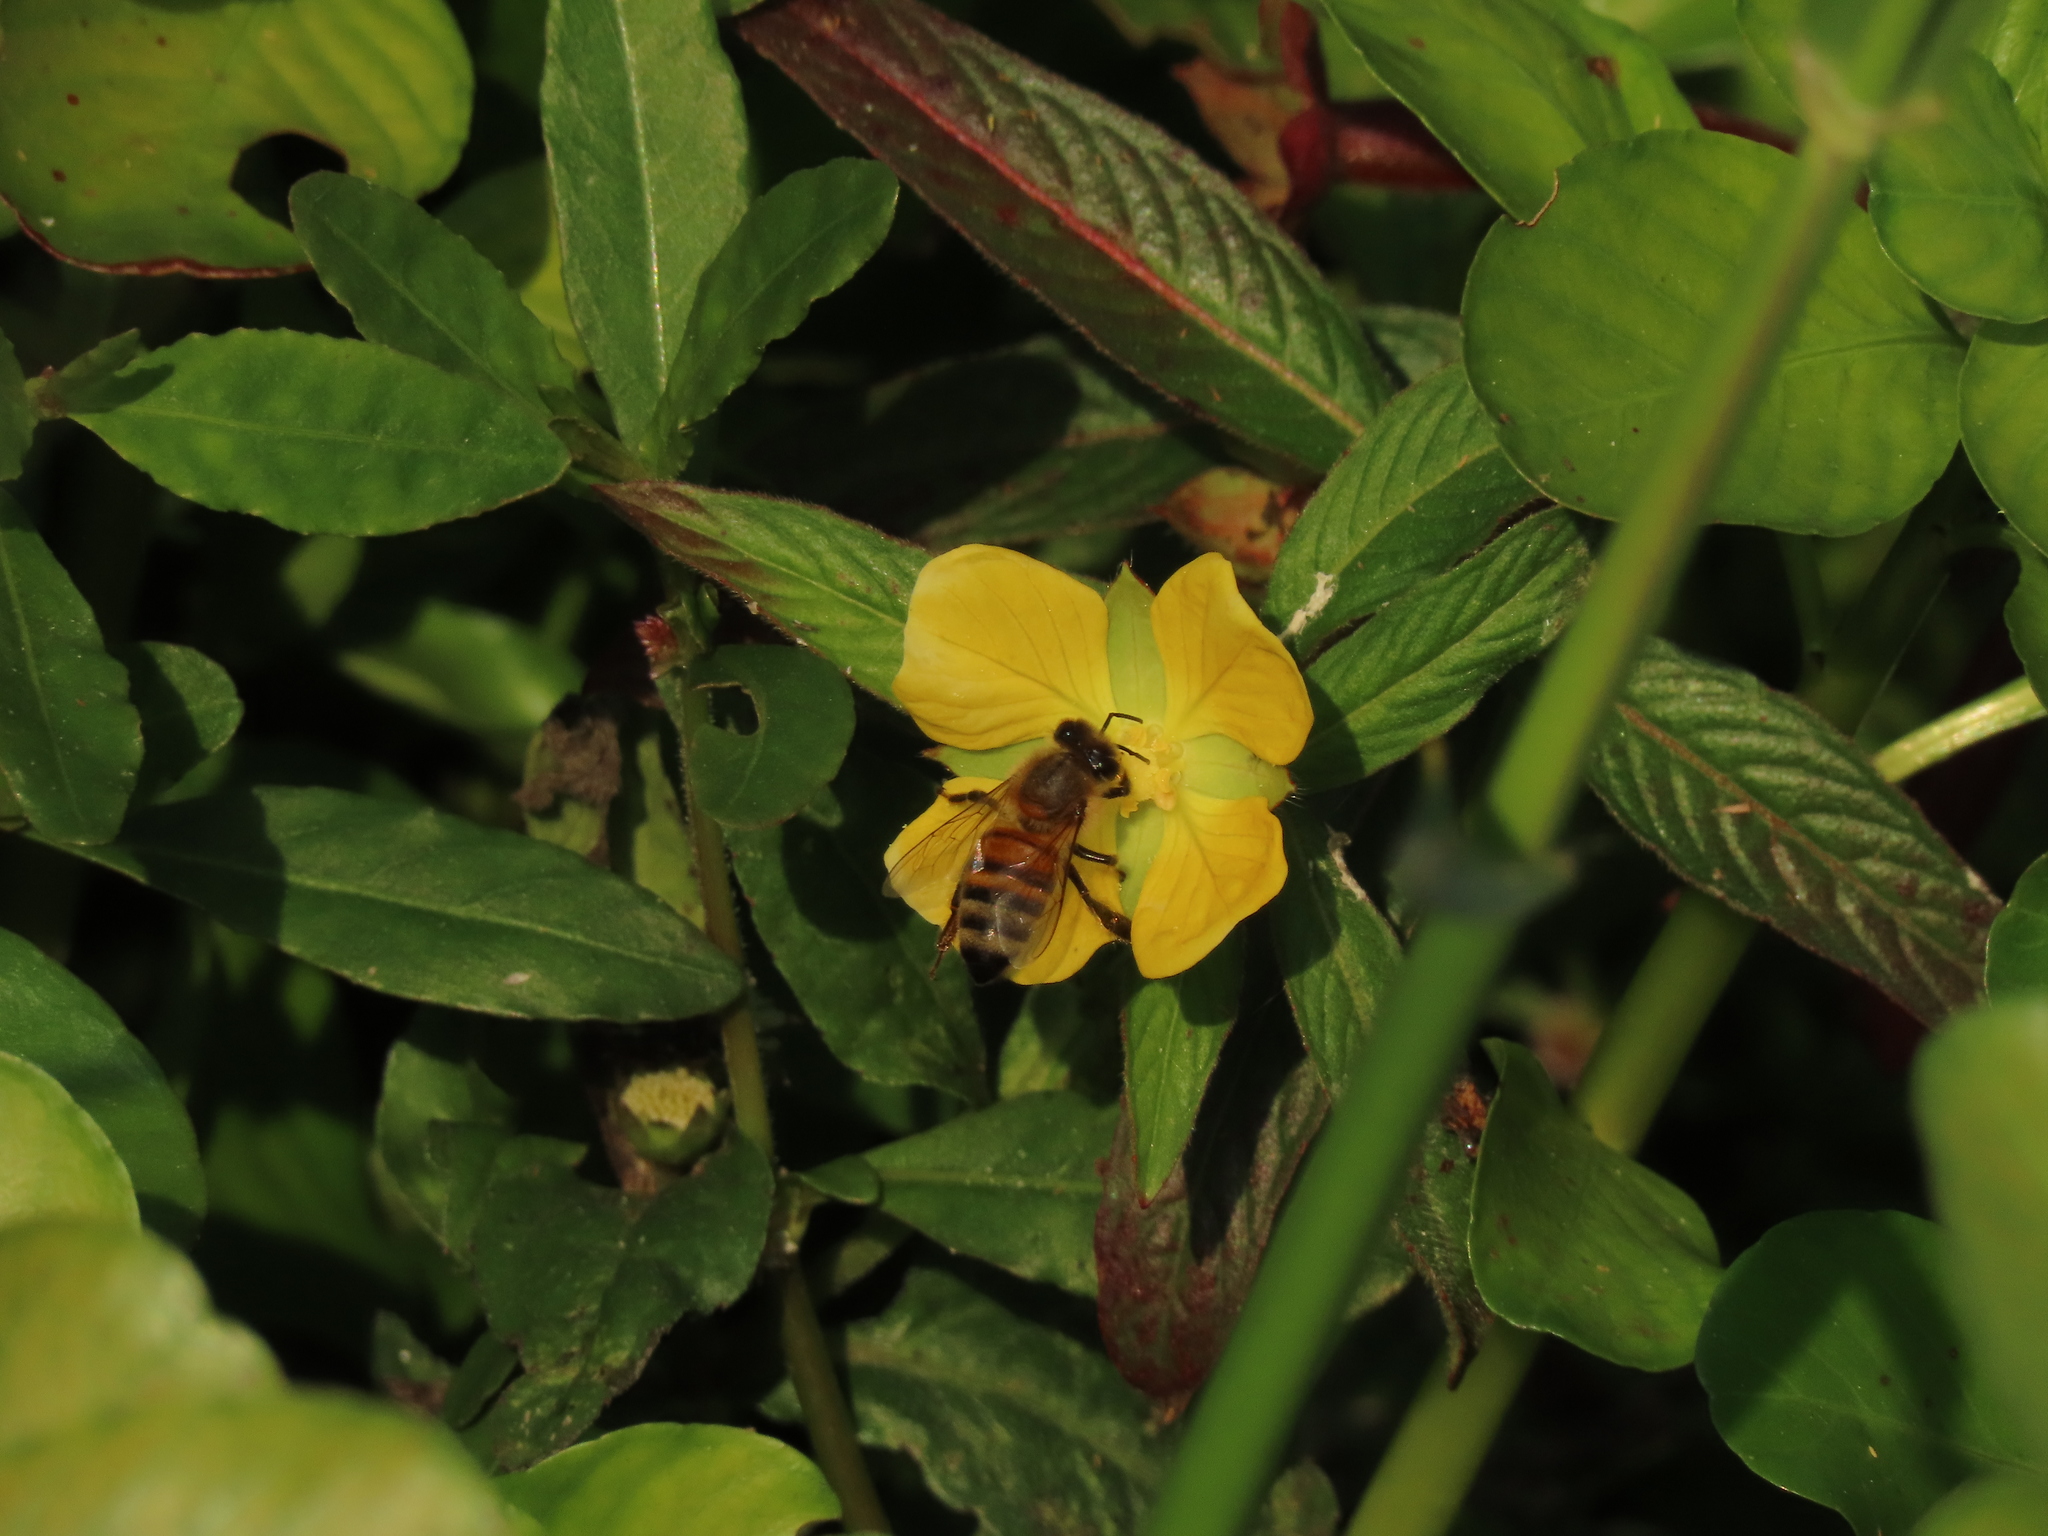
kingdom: Animalia
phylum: Arthropoda
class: Insecta
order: Hymenoptera
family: Apidae
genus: Apis
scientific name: Apis mellifera
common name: Honey bee
